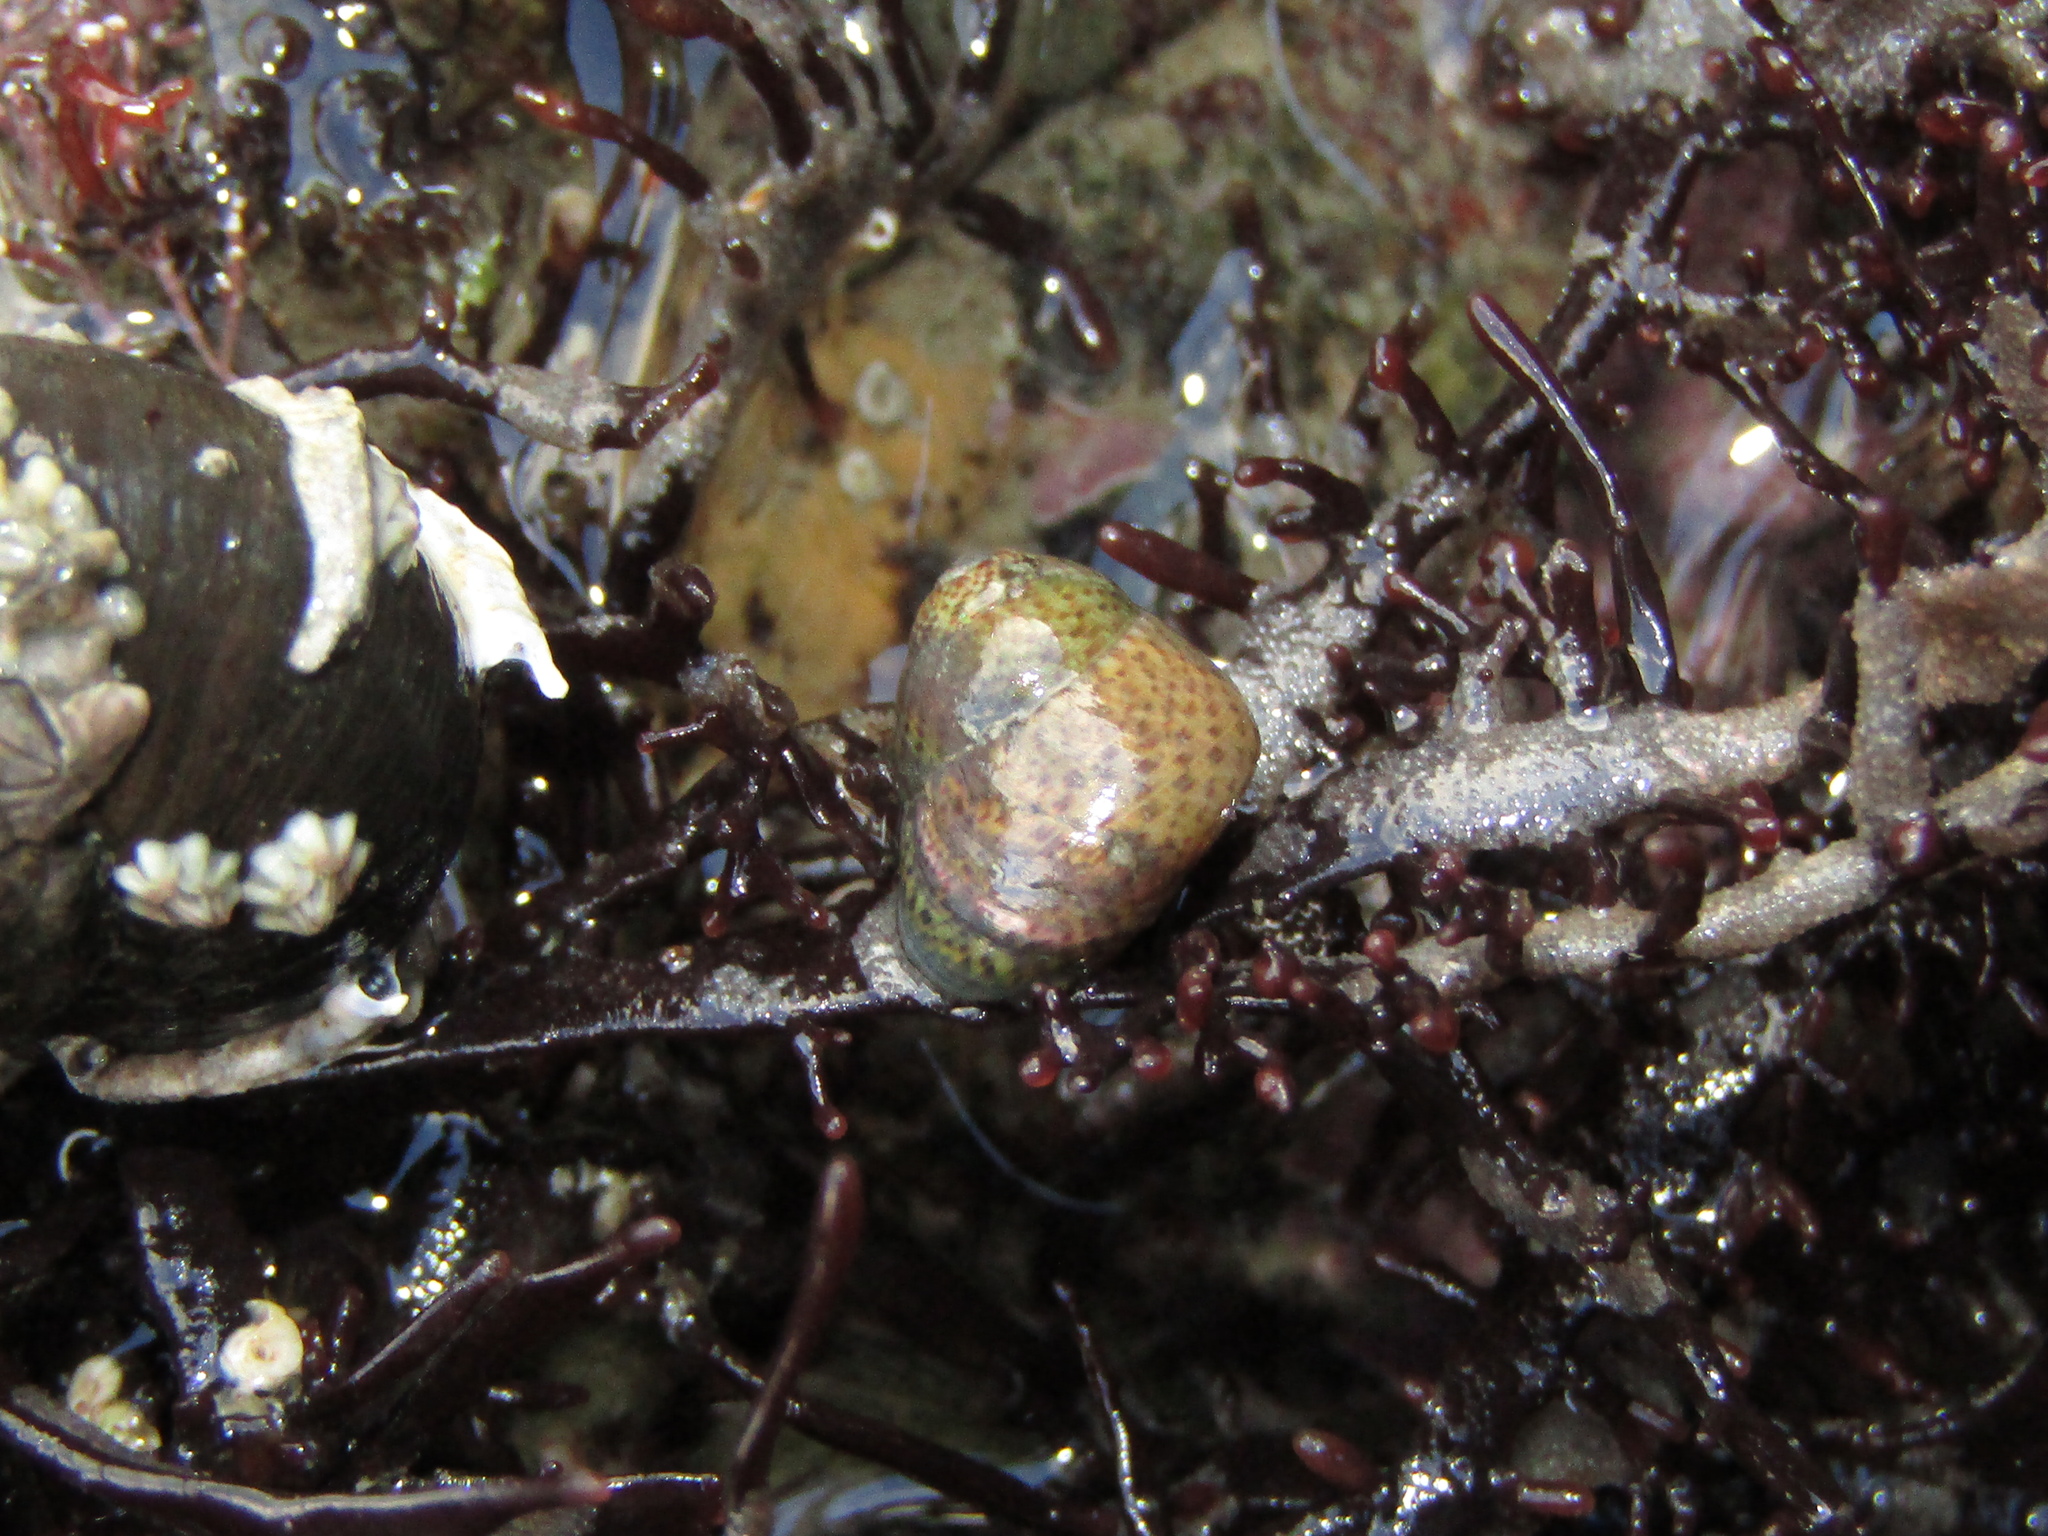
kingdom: Animalia
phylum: Mollusca
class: Gastropoda
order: Trochida
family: Trochidae
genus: Micrelenchus
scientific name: Micrelenchus tessellatus
